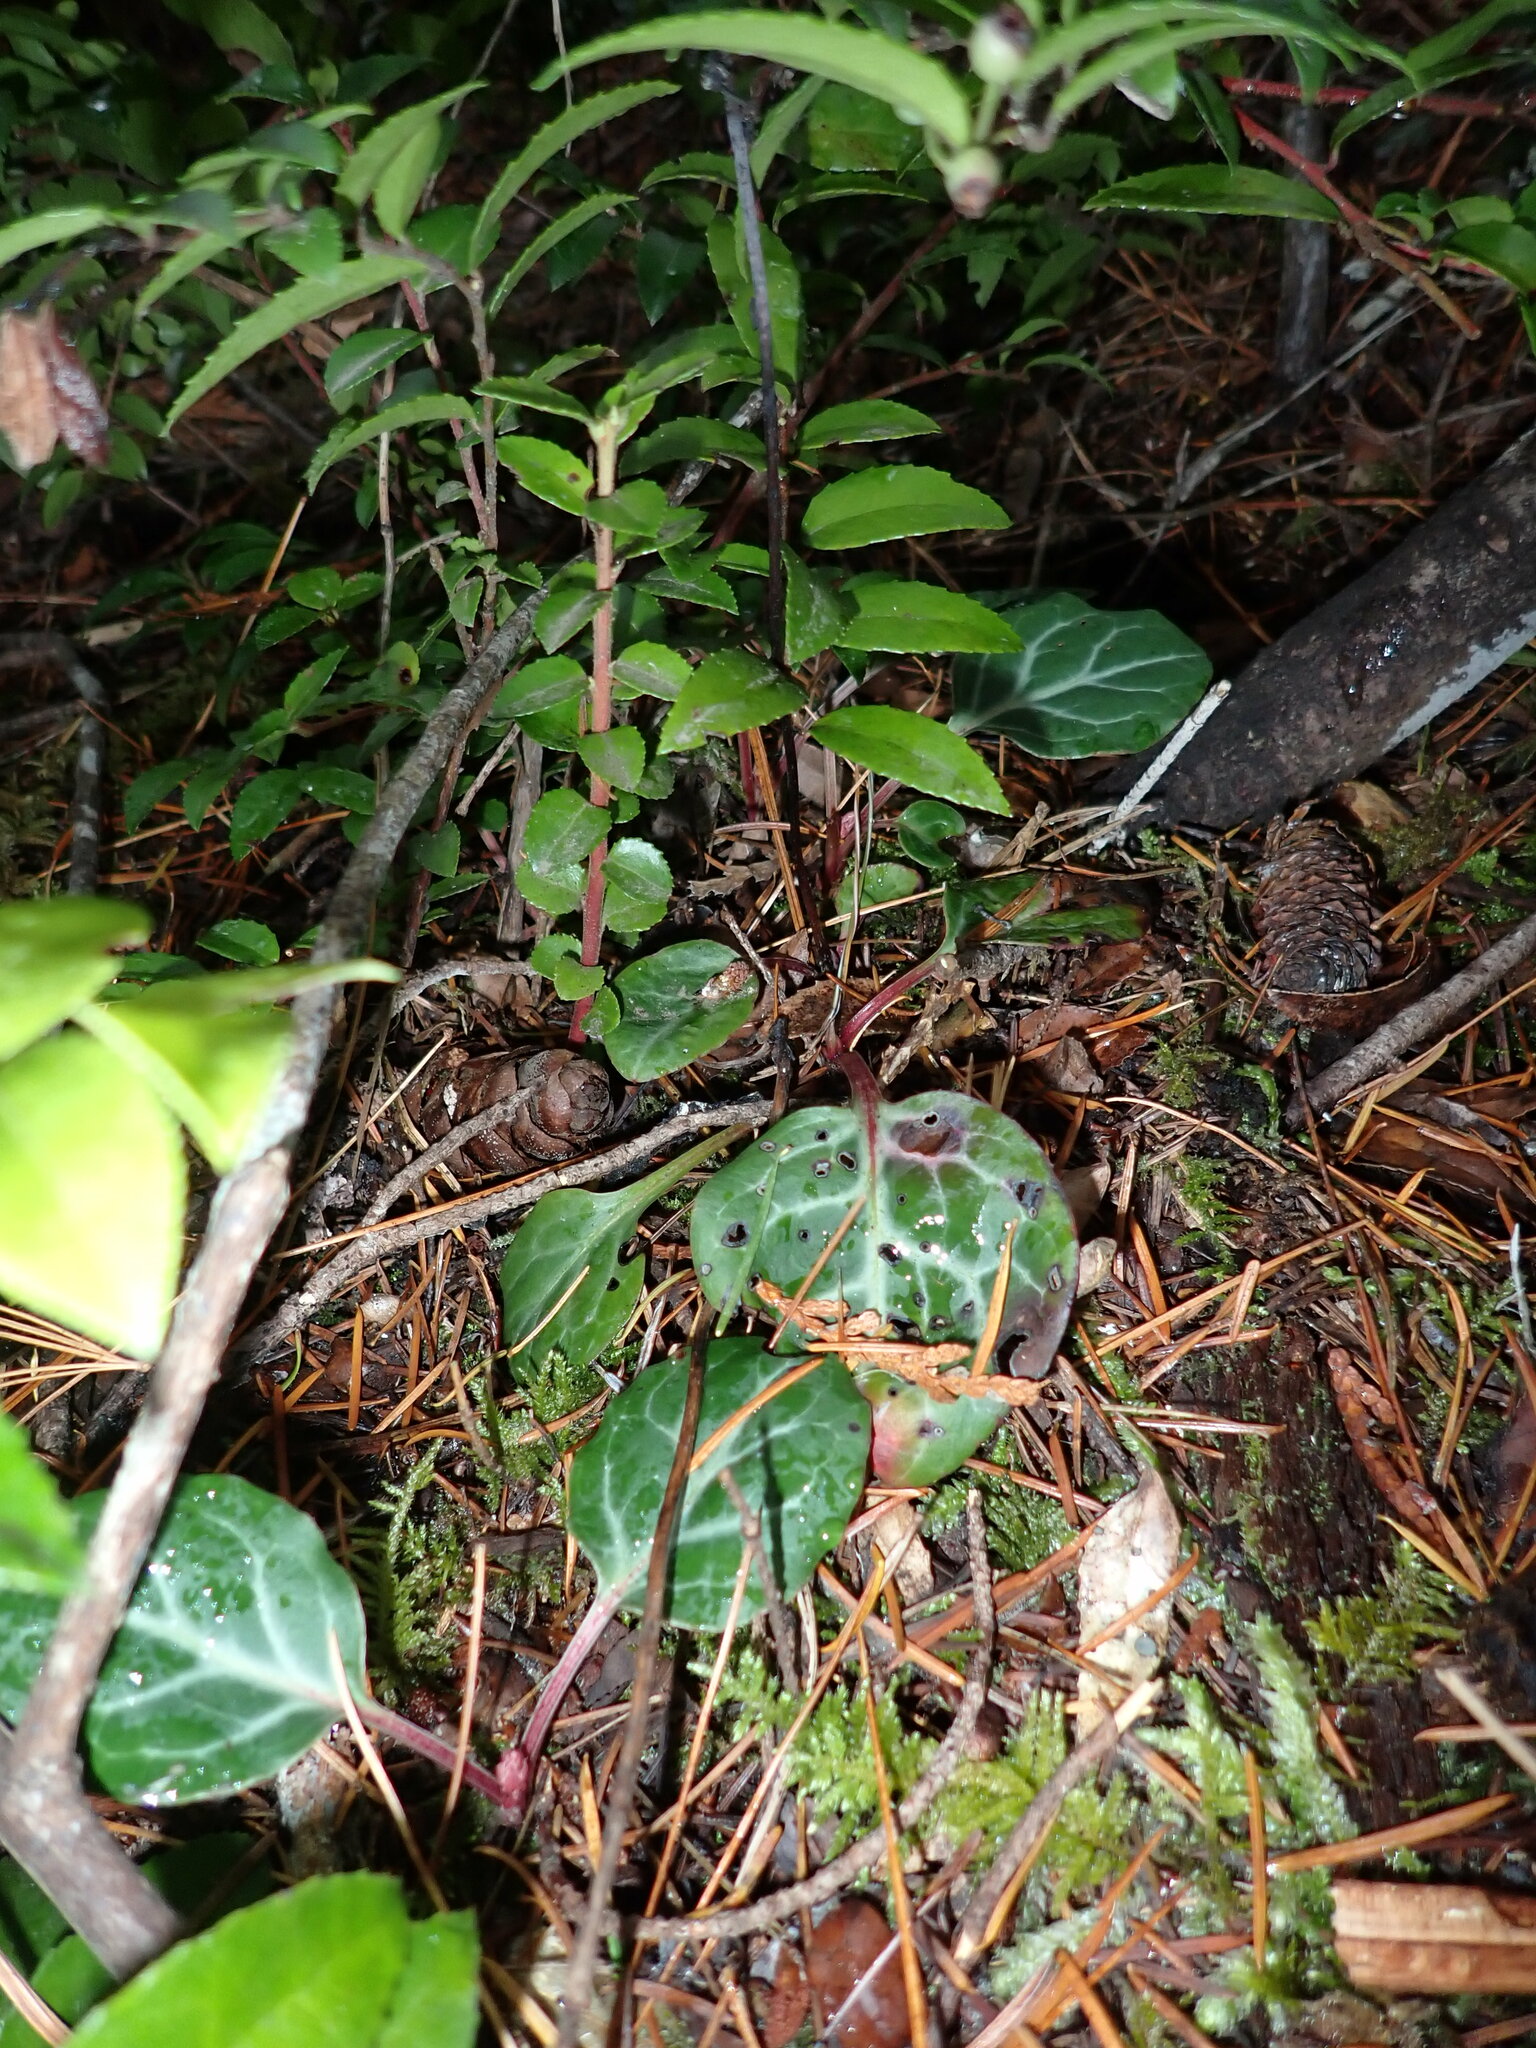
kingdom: Plantae
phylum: Tracheophyta
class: Magnoliopsida
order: Ericales
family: Ericaceae
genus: Pyrola
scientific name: Pyrola picta
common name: White-vein wintergreen
